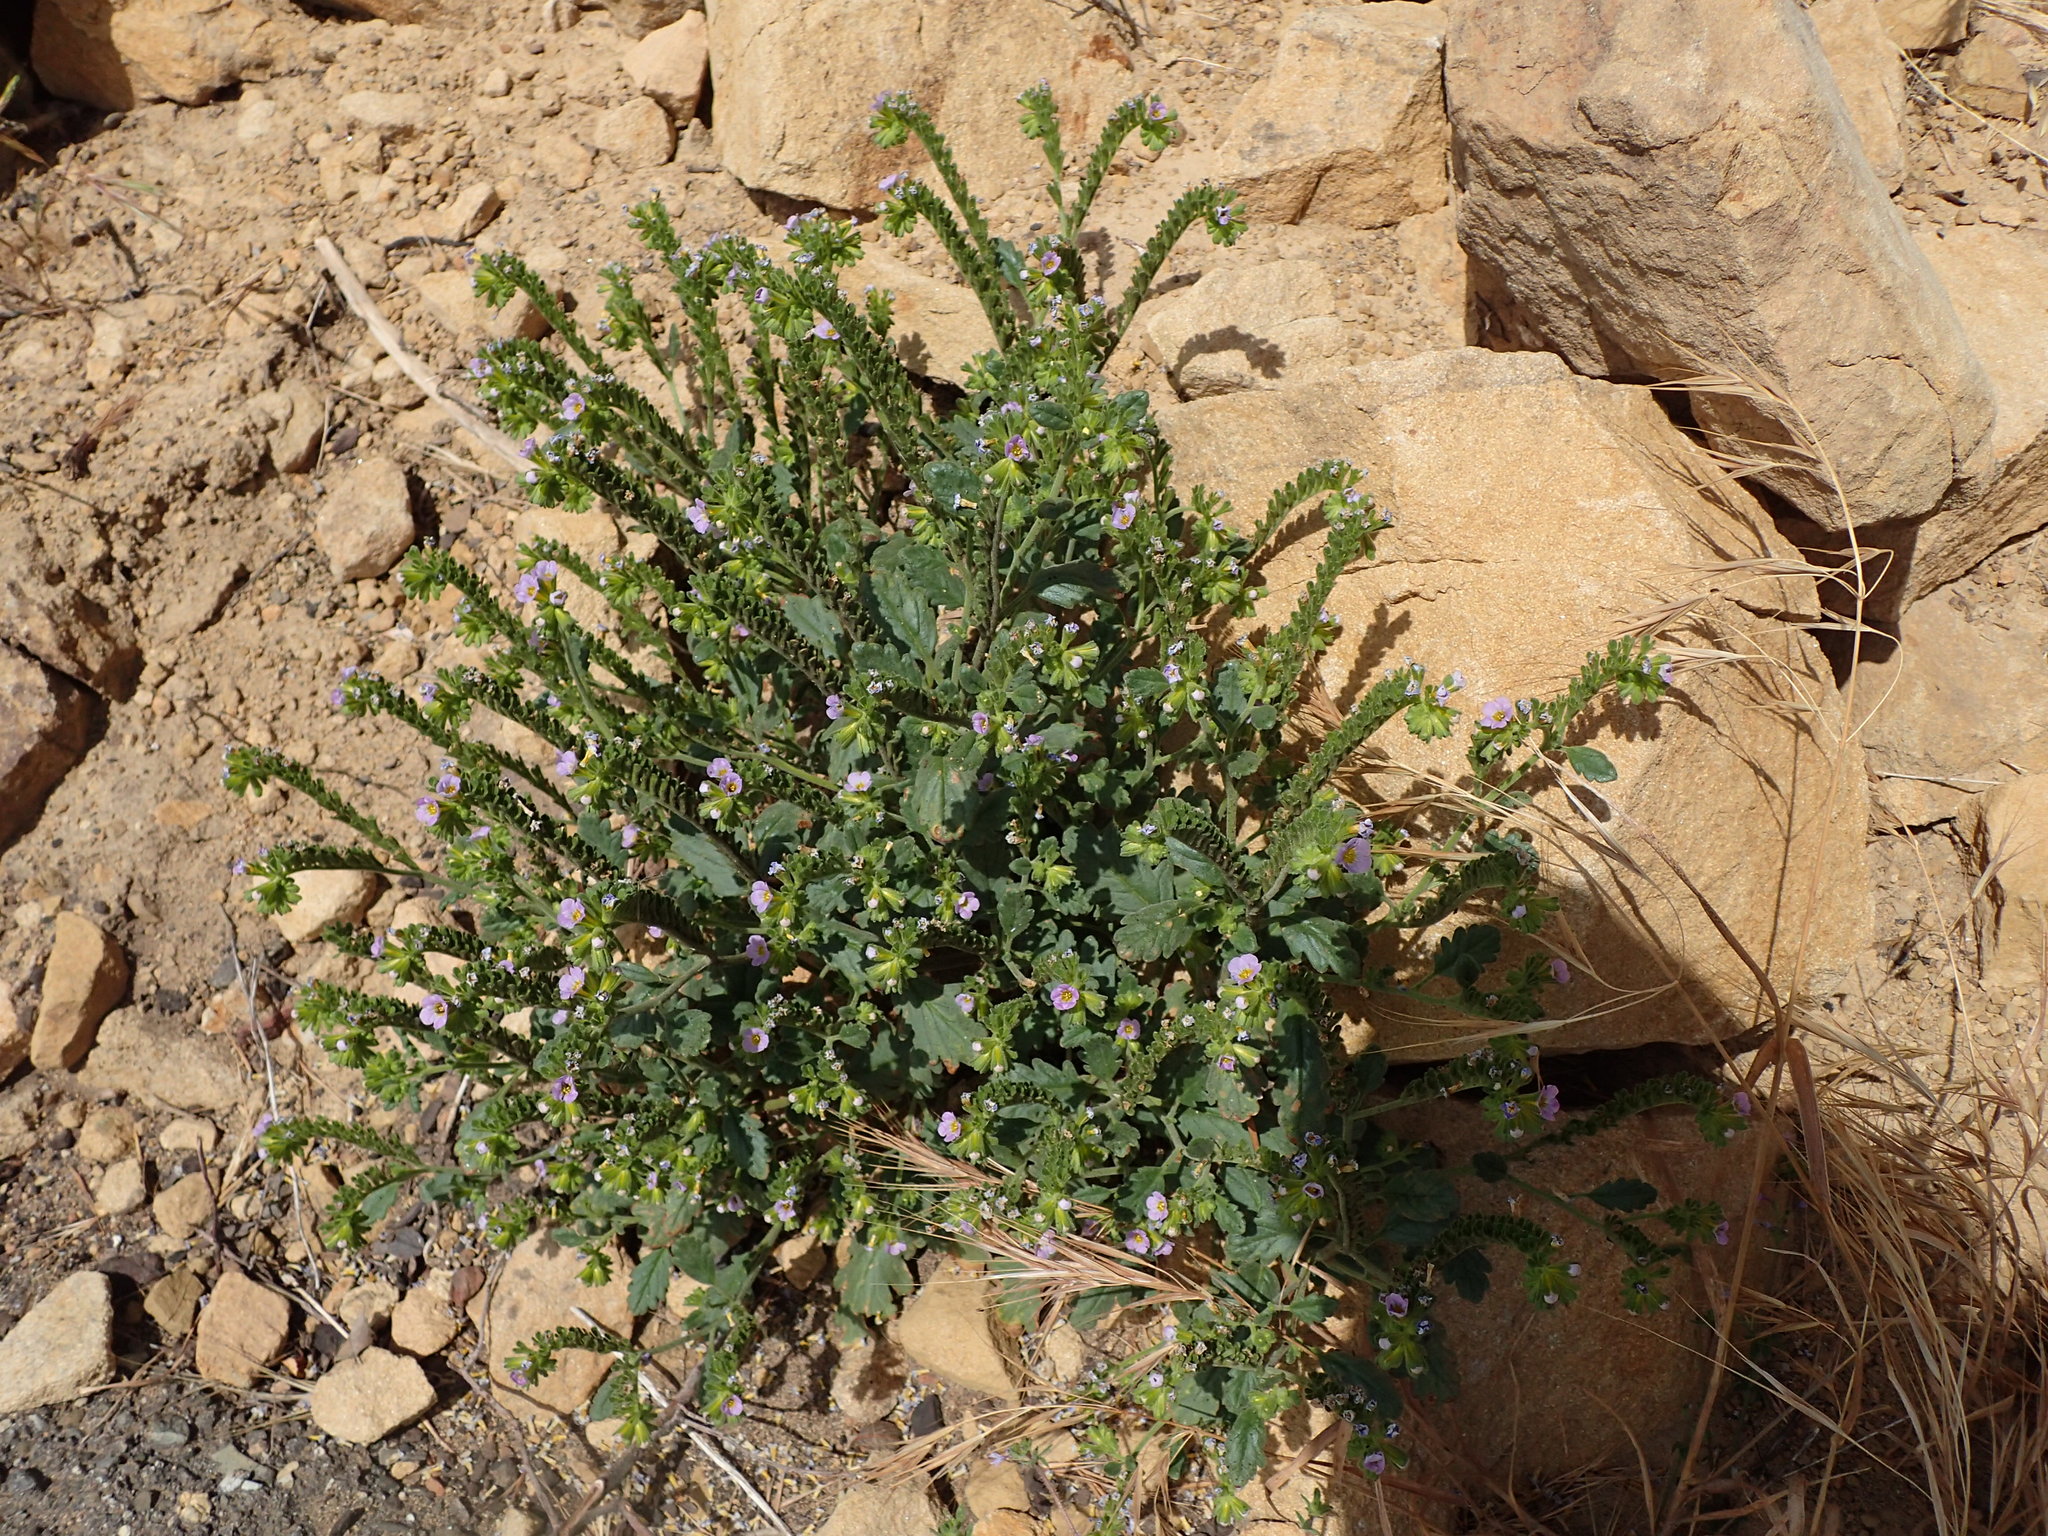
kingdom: Plantae
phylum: Tracheophyta
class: Magnoliopsida
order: Boraginales
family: Hydrophyllaceae
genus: Phacelia
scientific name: Phacelia suaveolens
